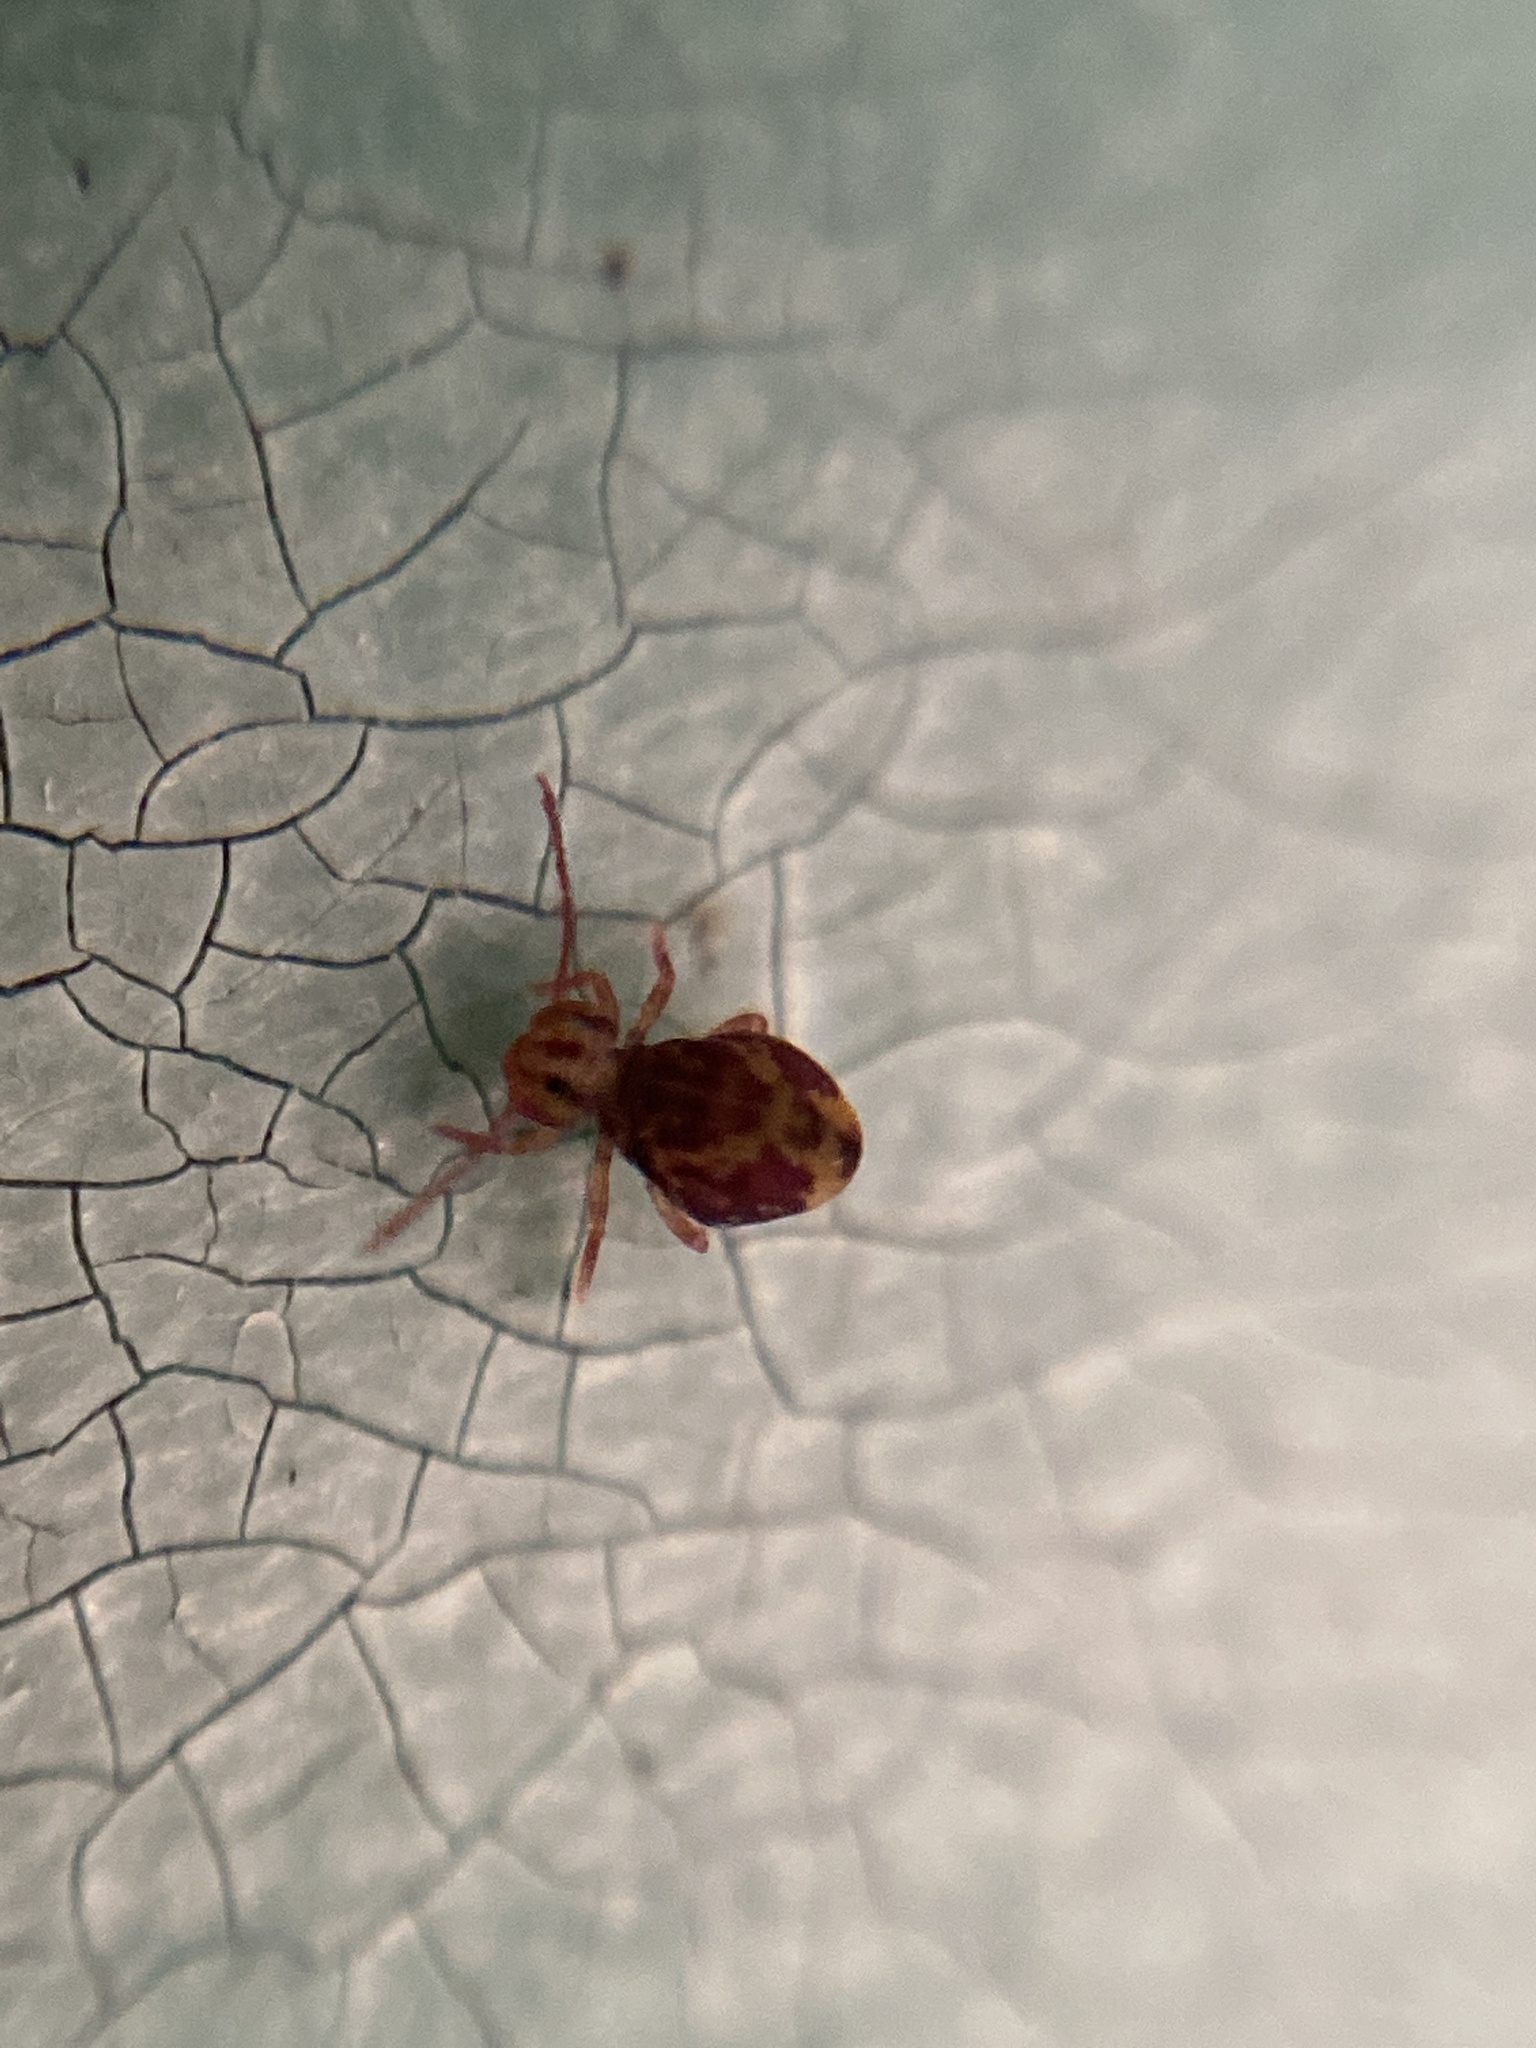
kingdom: Animalia
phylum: Arthropoda
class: Collembola
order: Symphypleona
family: Dicyrtomidae
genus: Dicyrtomina
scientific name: Dicyrtomina ornata
